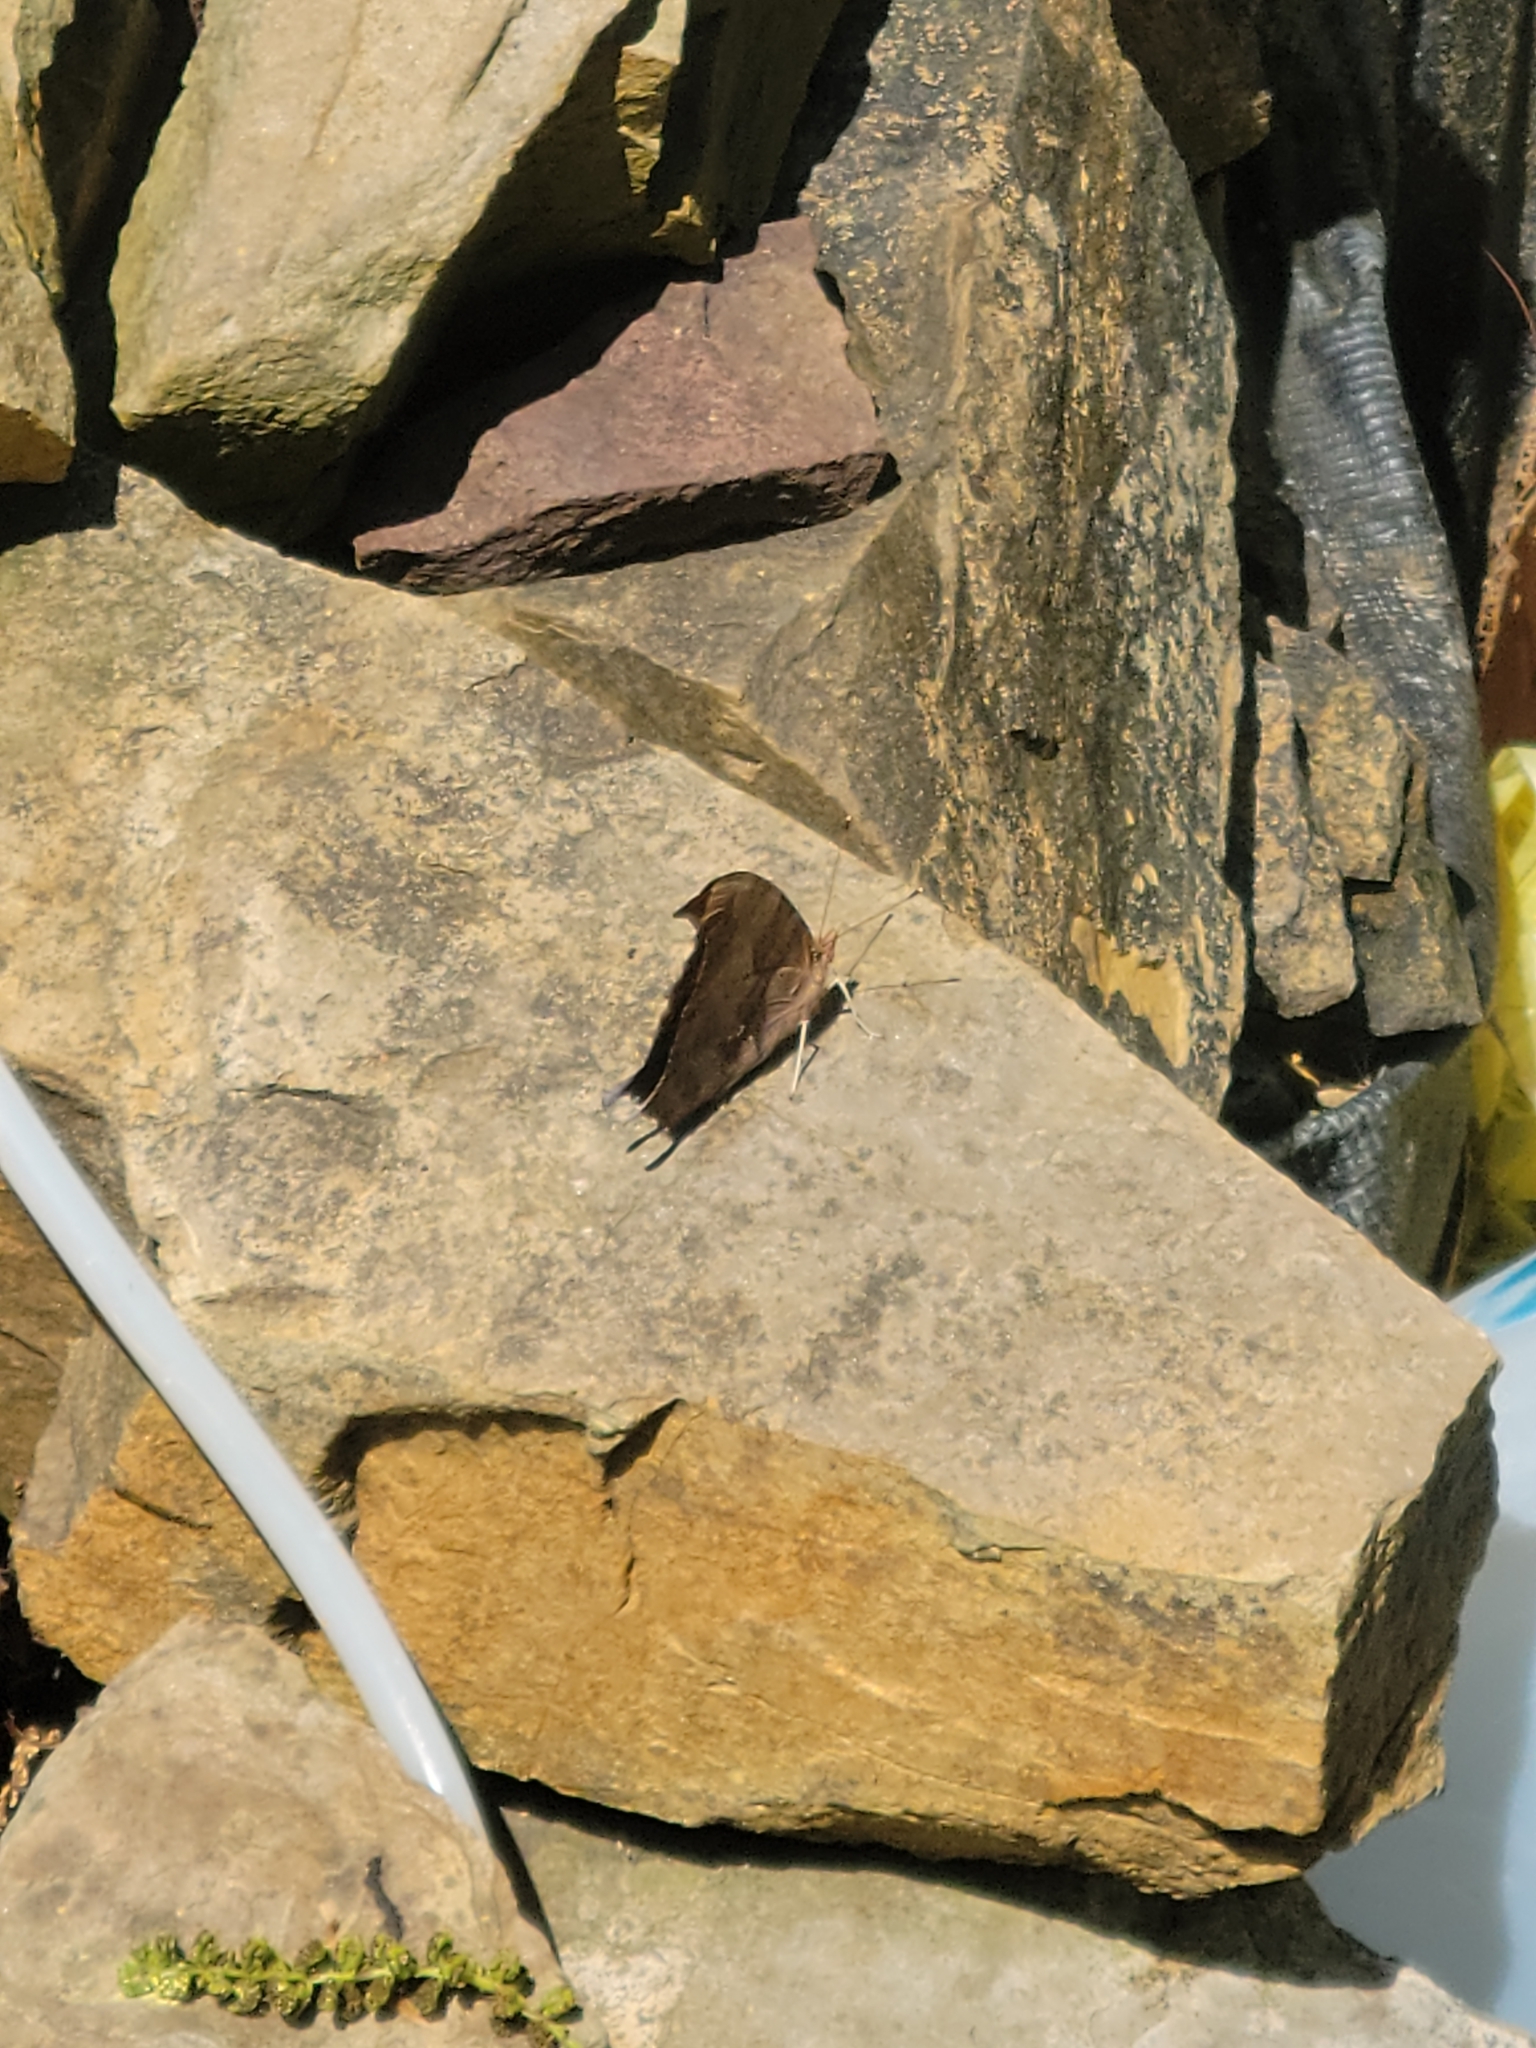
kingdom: Animalia
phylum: Arthropoda
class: Insecta
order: Lepidoptera
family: Nymphalidae
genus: Polygonia
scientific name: Polygonia interrogationis
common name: Question mark
